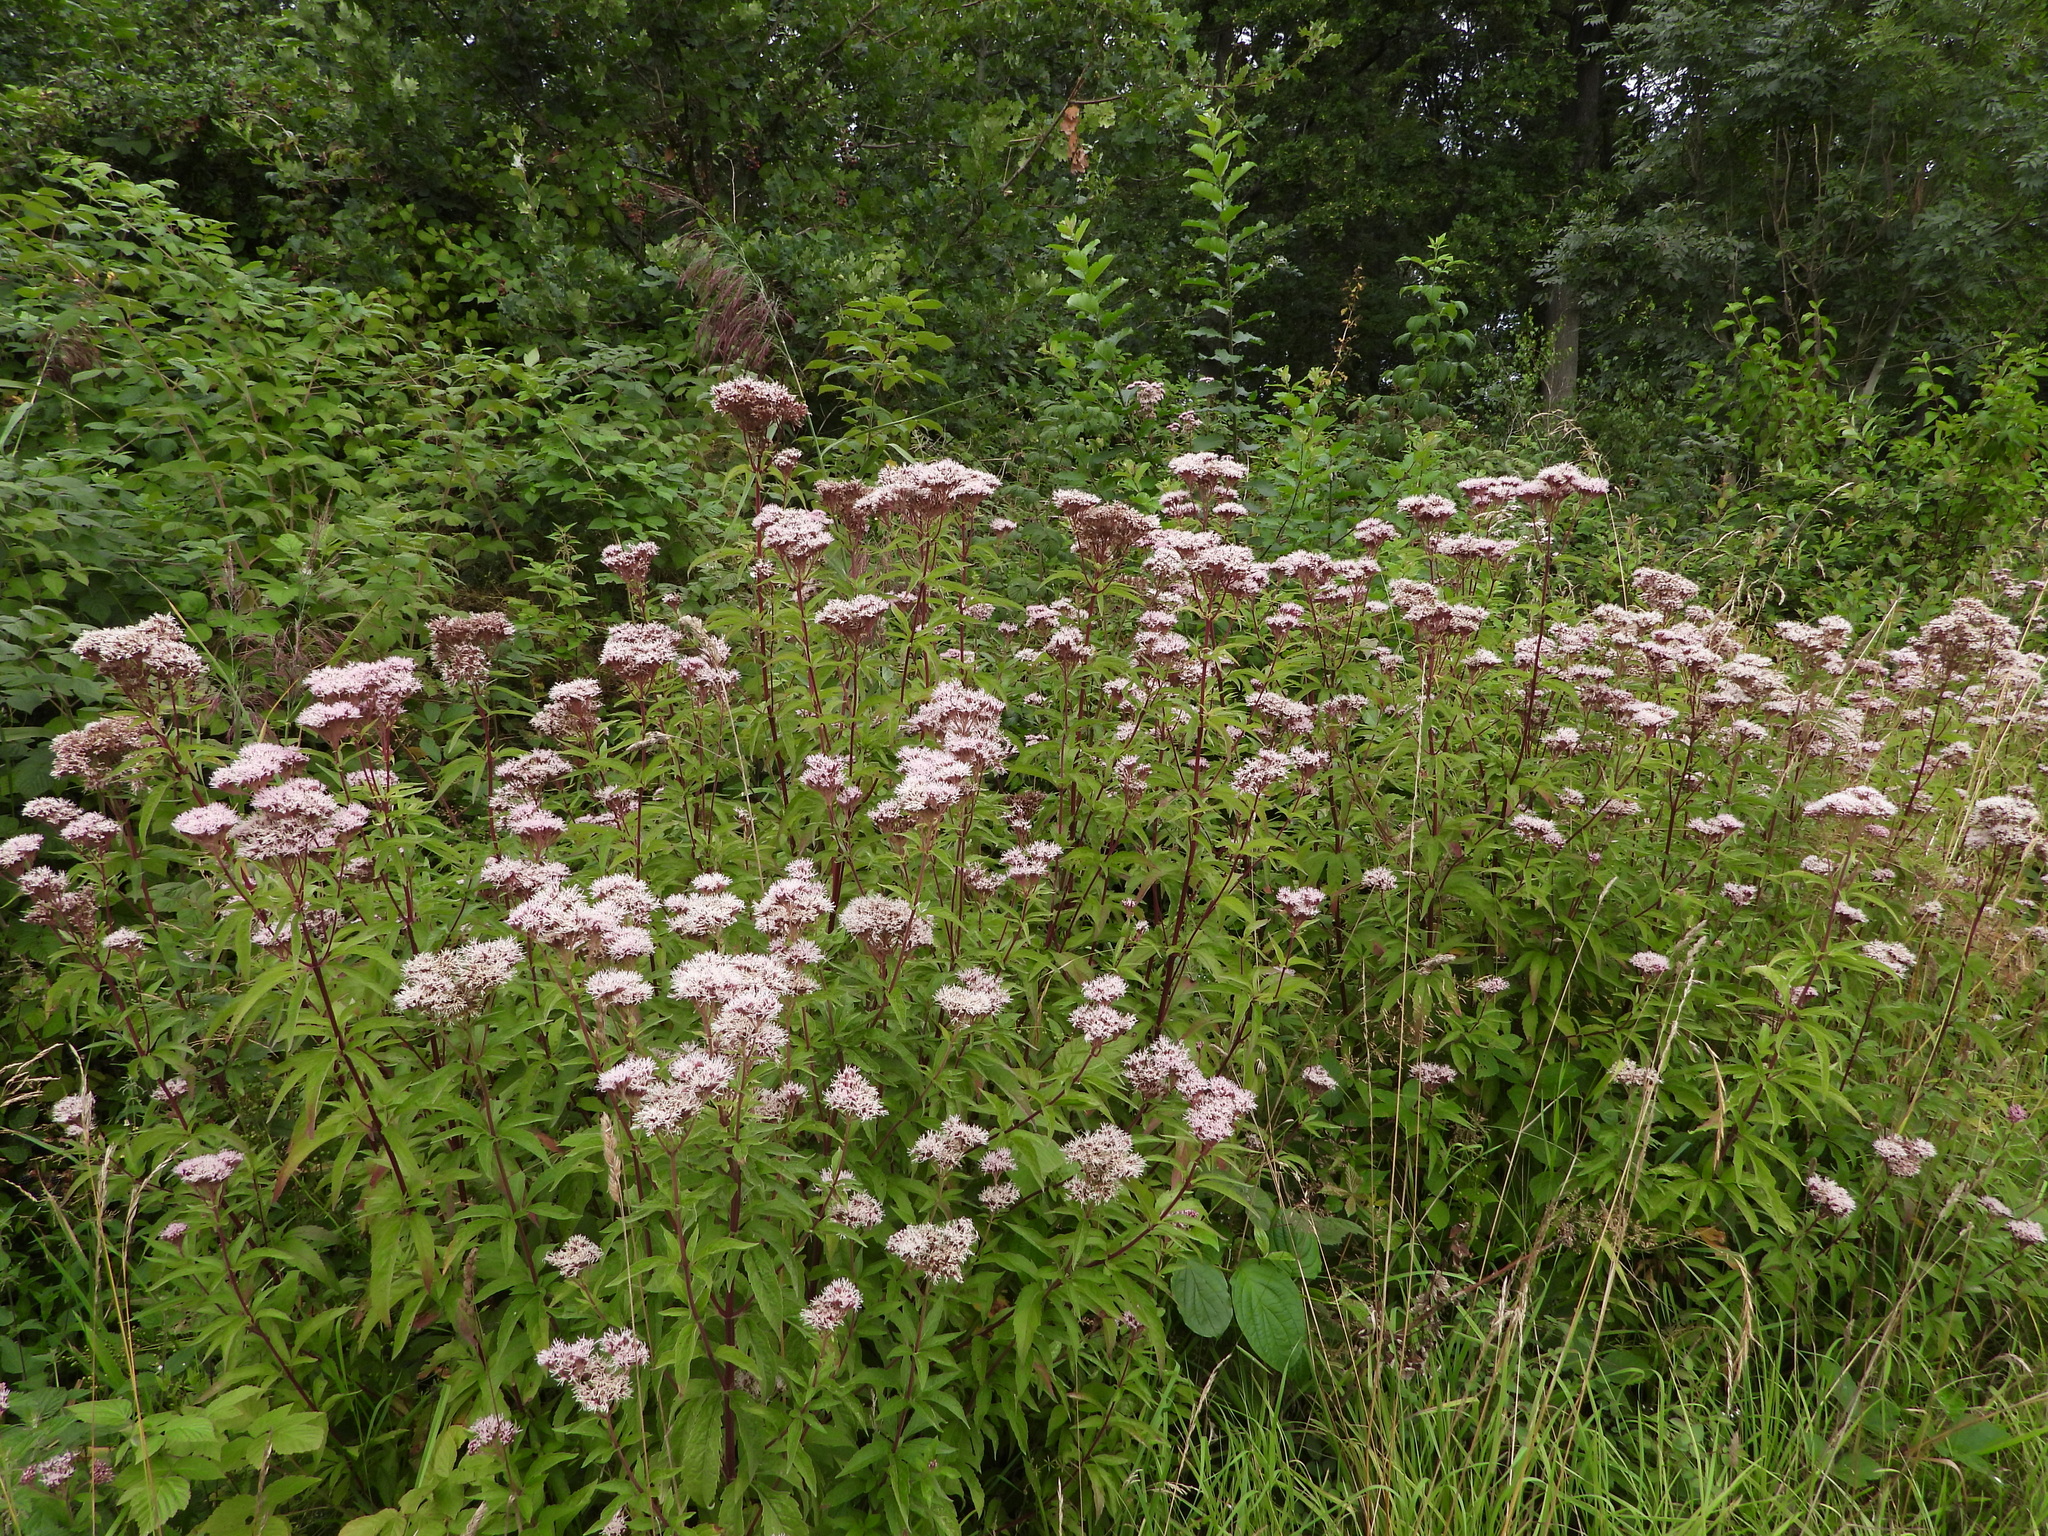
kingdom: Plantae
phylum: Tracheophyta
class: Magnoliopsida
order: Asterales
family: Asteraceae
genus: Eupatorium
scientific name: Eupatorium cannabinum
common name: Hemp-agrimony
